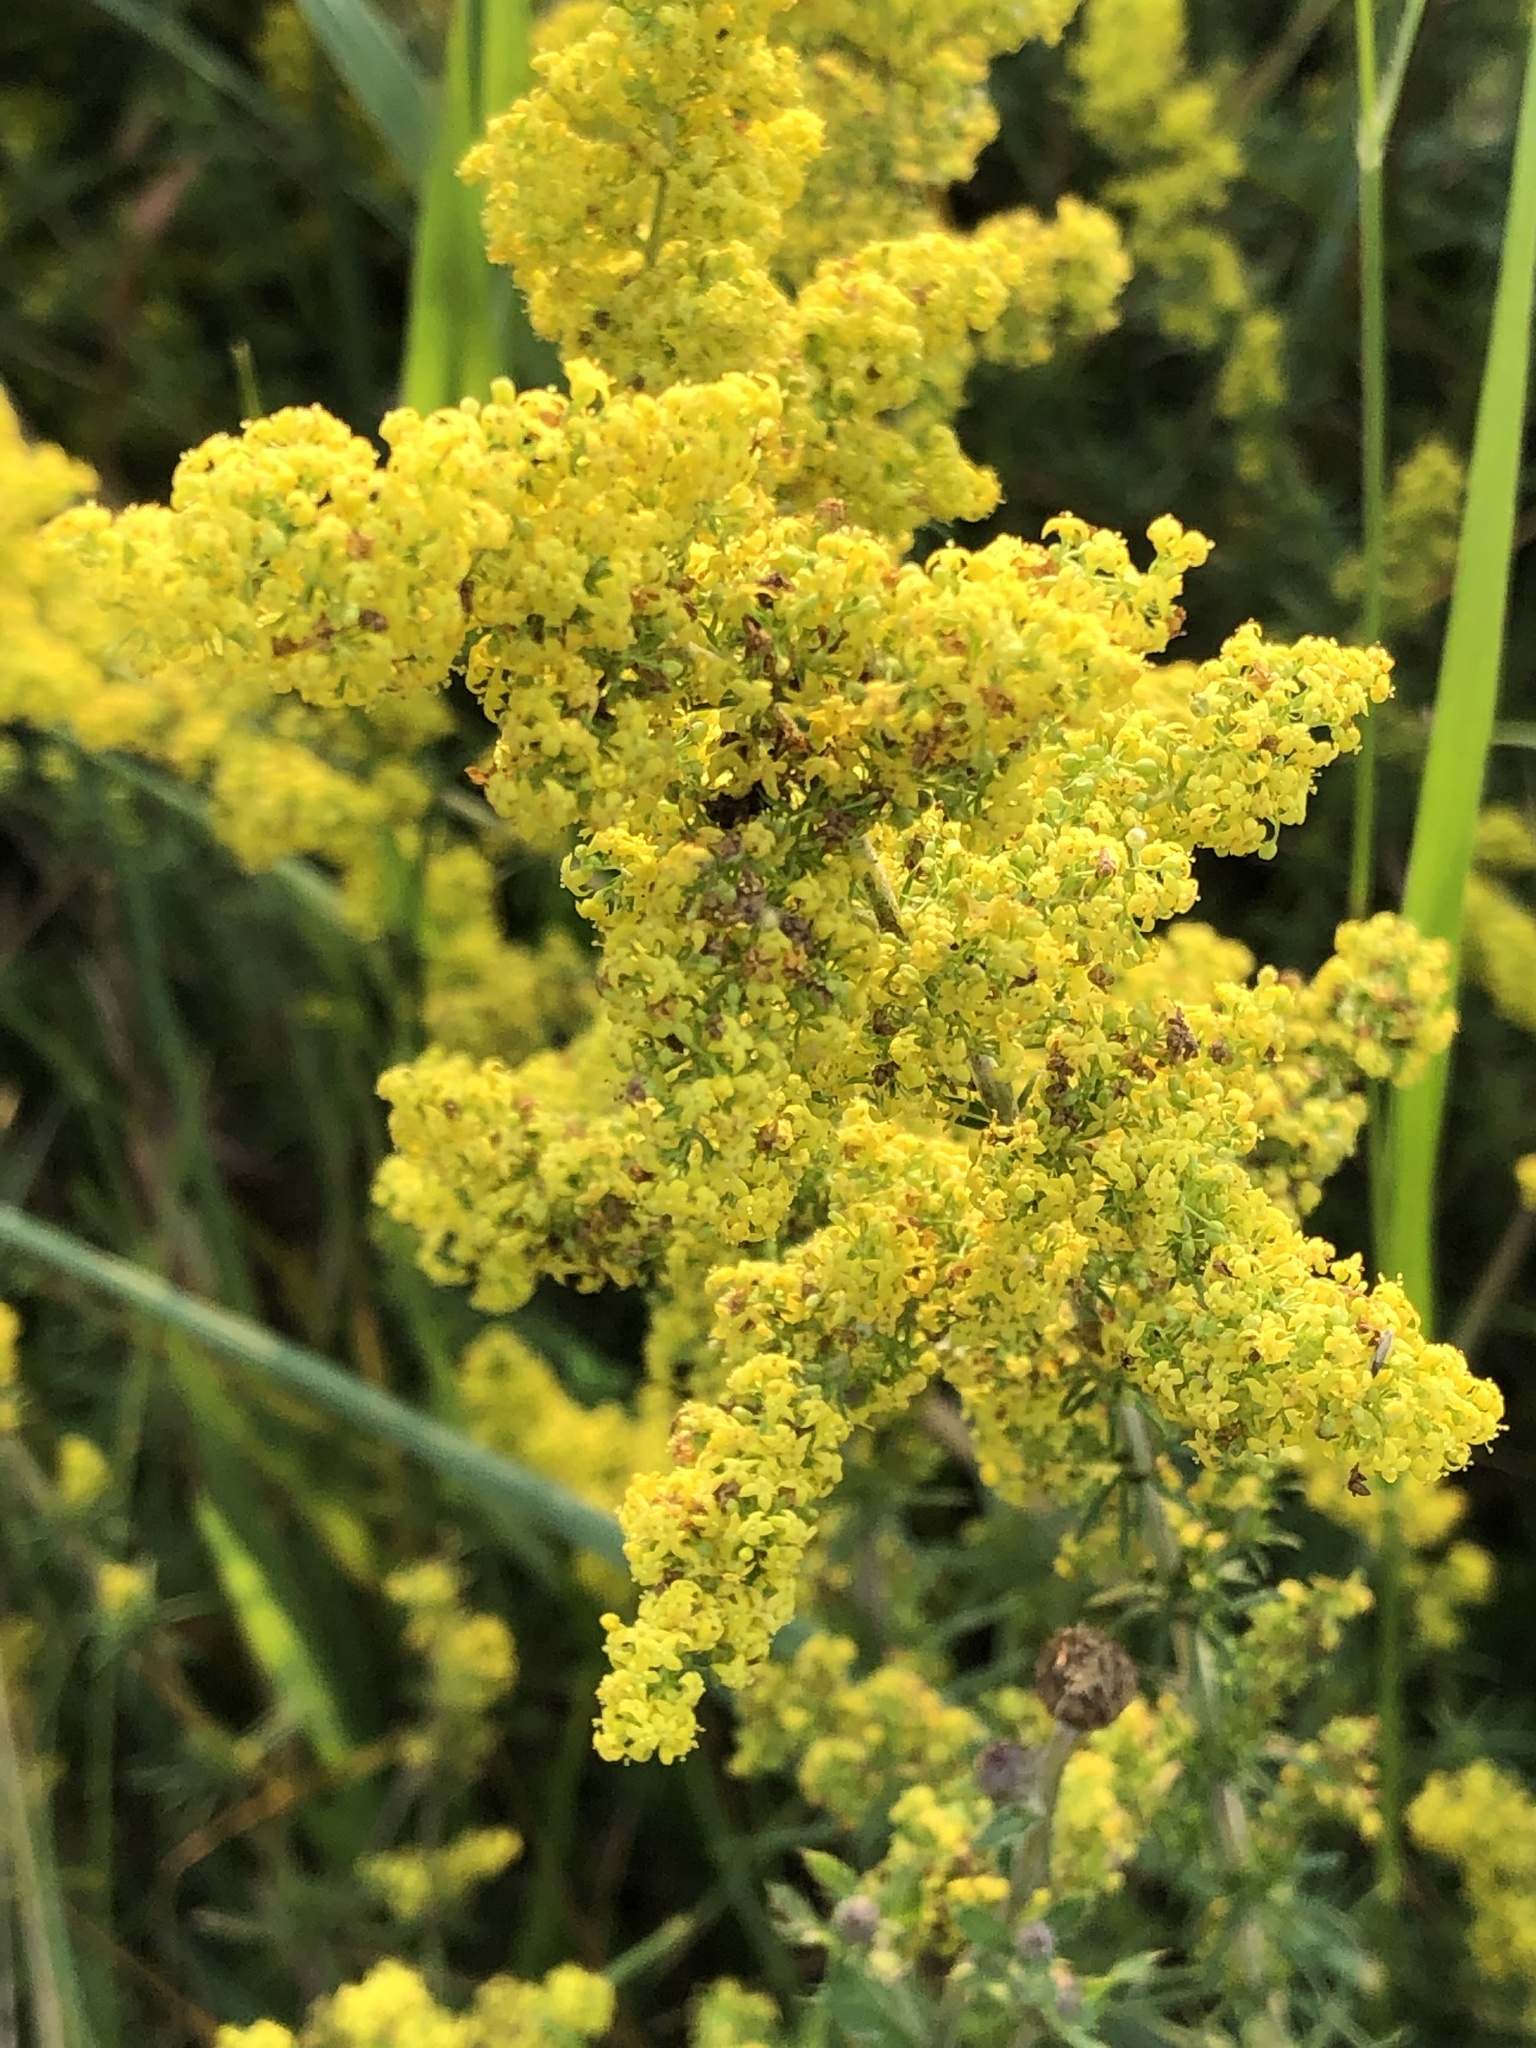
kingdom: Plantae
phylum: Tracheophyta
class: Magnoliopsida
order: Gentianales
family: Rubiaceae
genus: Galium
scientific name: Galium verum
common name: Lady's bedstraw
